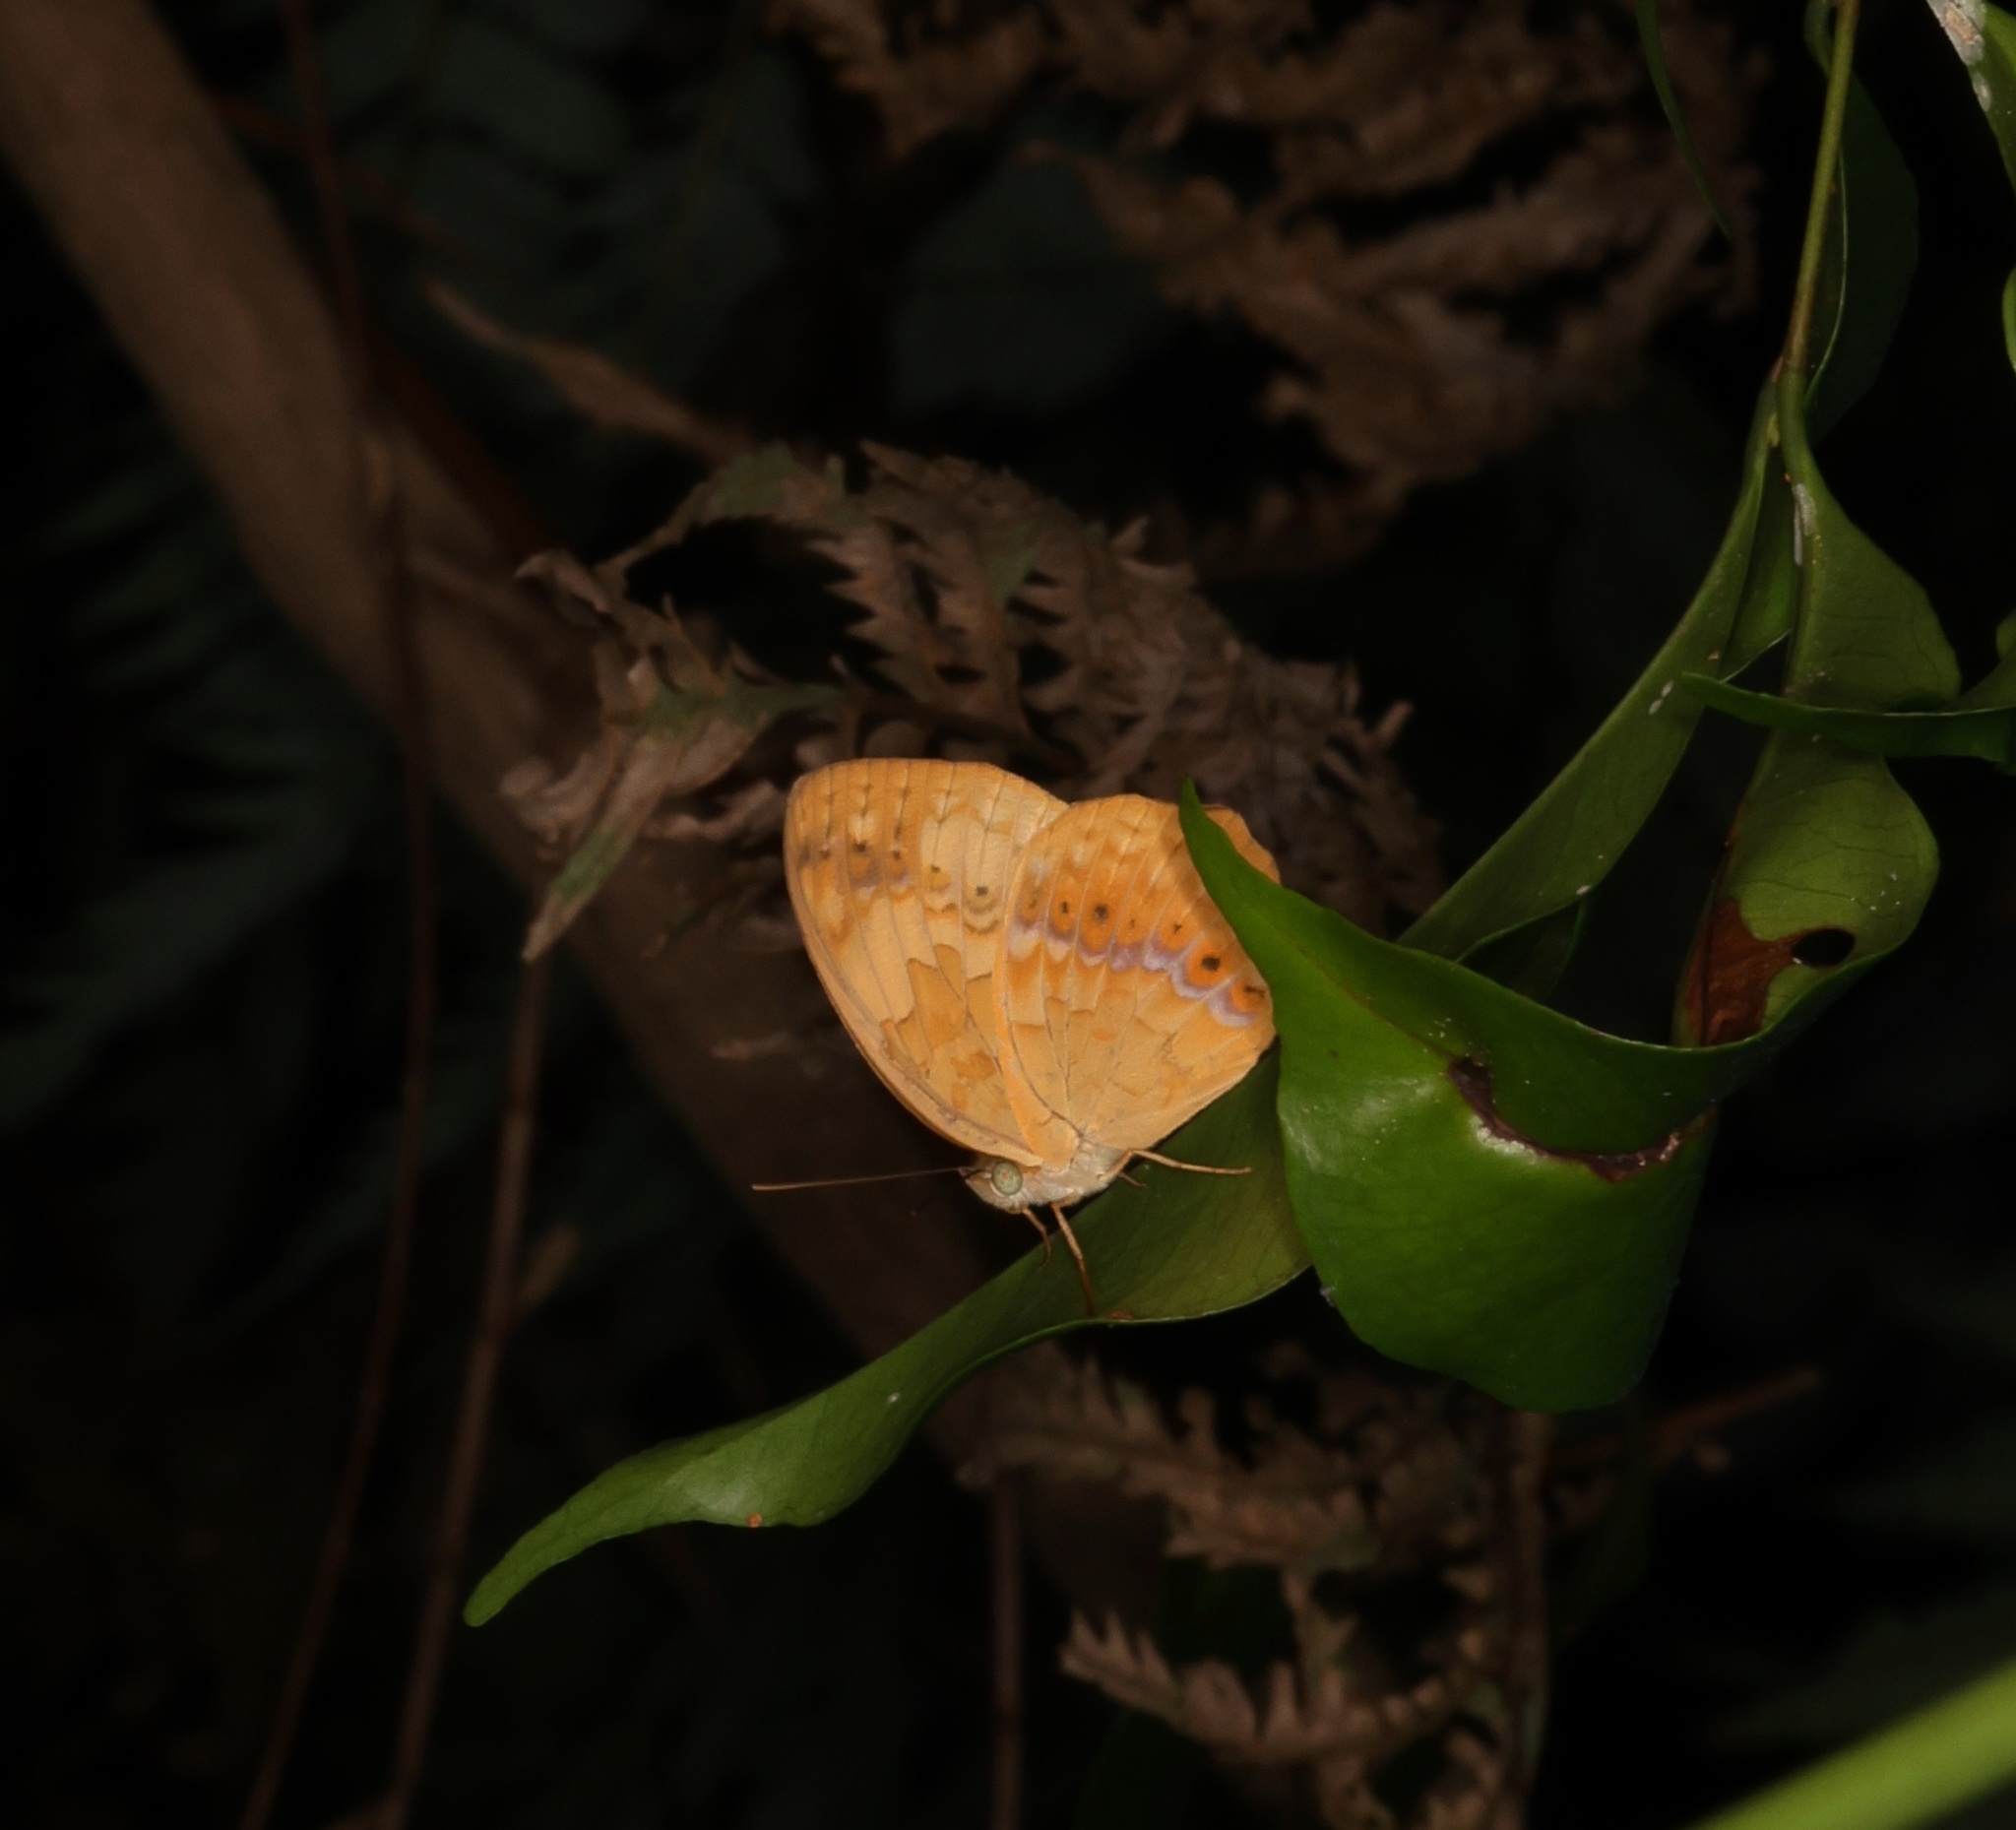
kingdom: Animalia
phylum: Arthropoda
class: Insecta
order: Lepidoptera
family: Nymphalidae
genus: Cupha
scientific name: Cupha erymanthis
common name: Rustic
